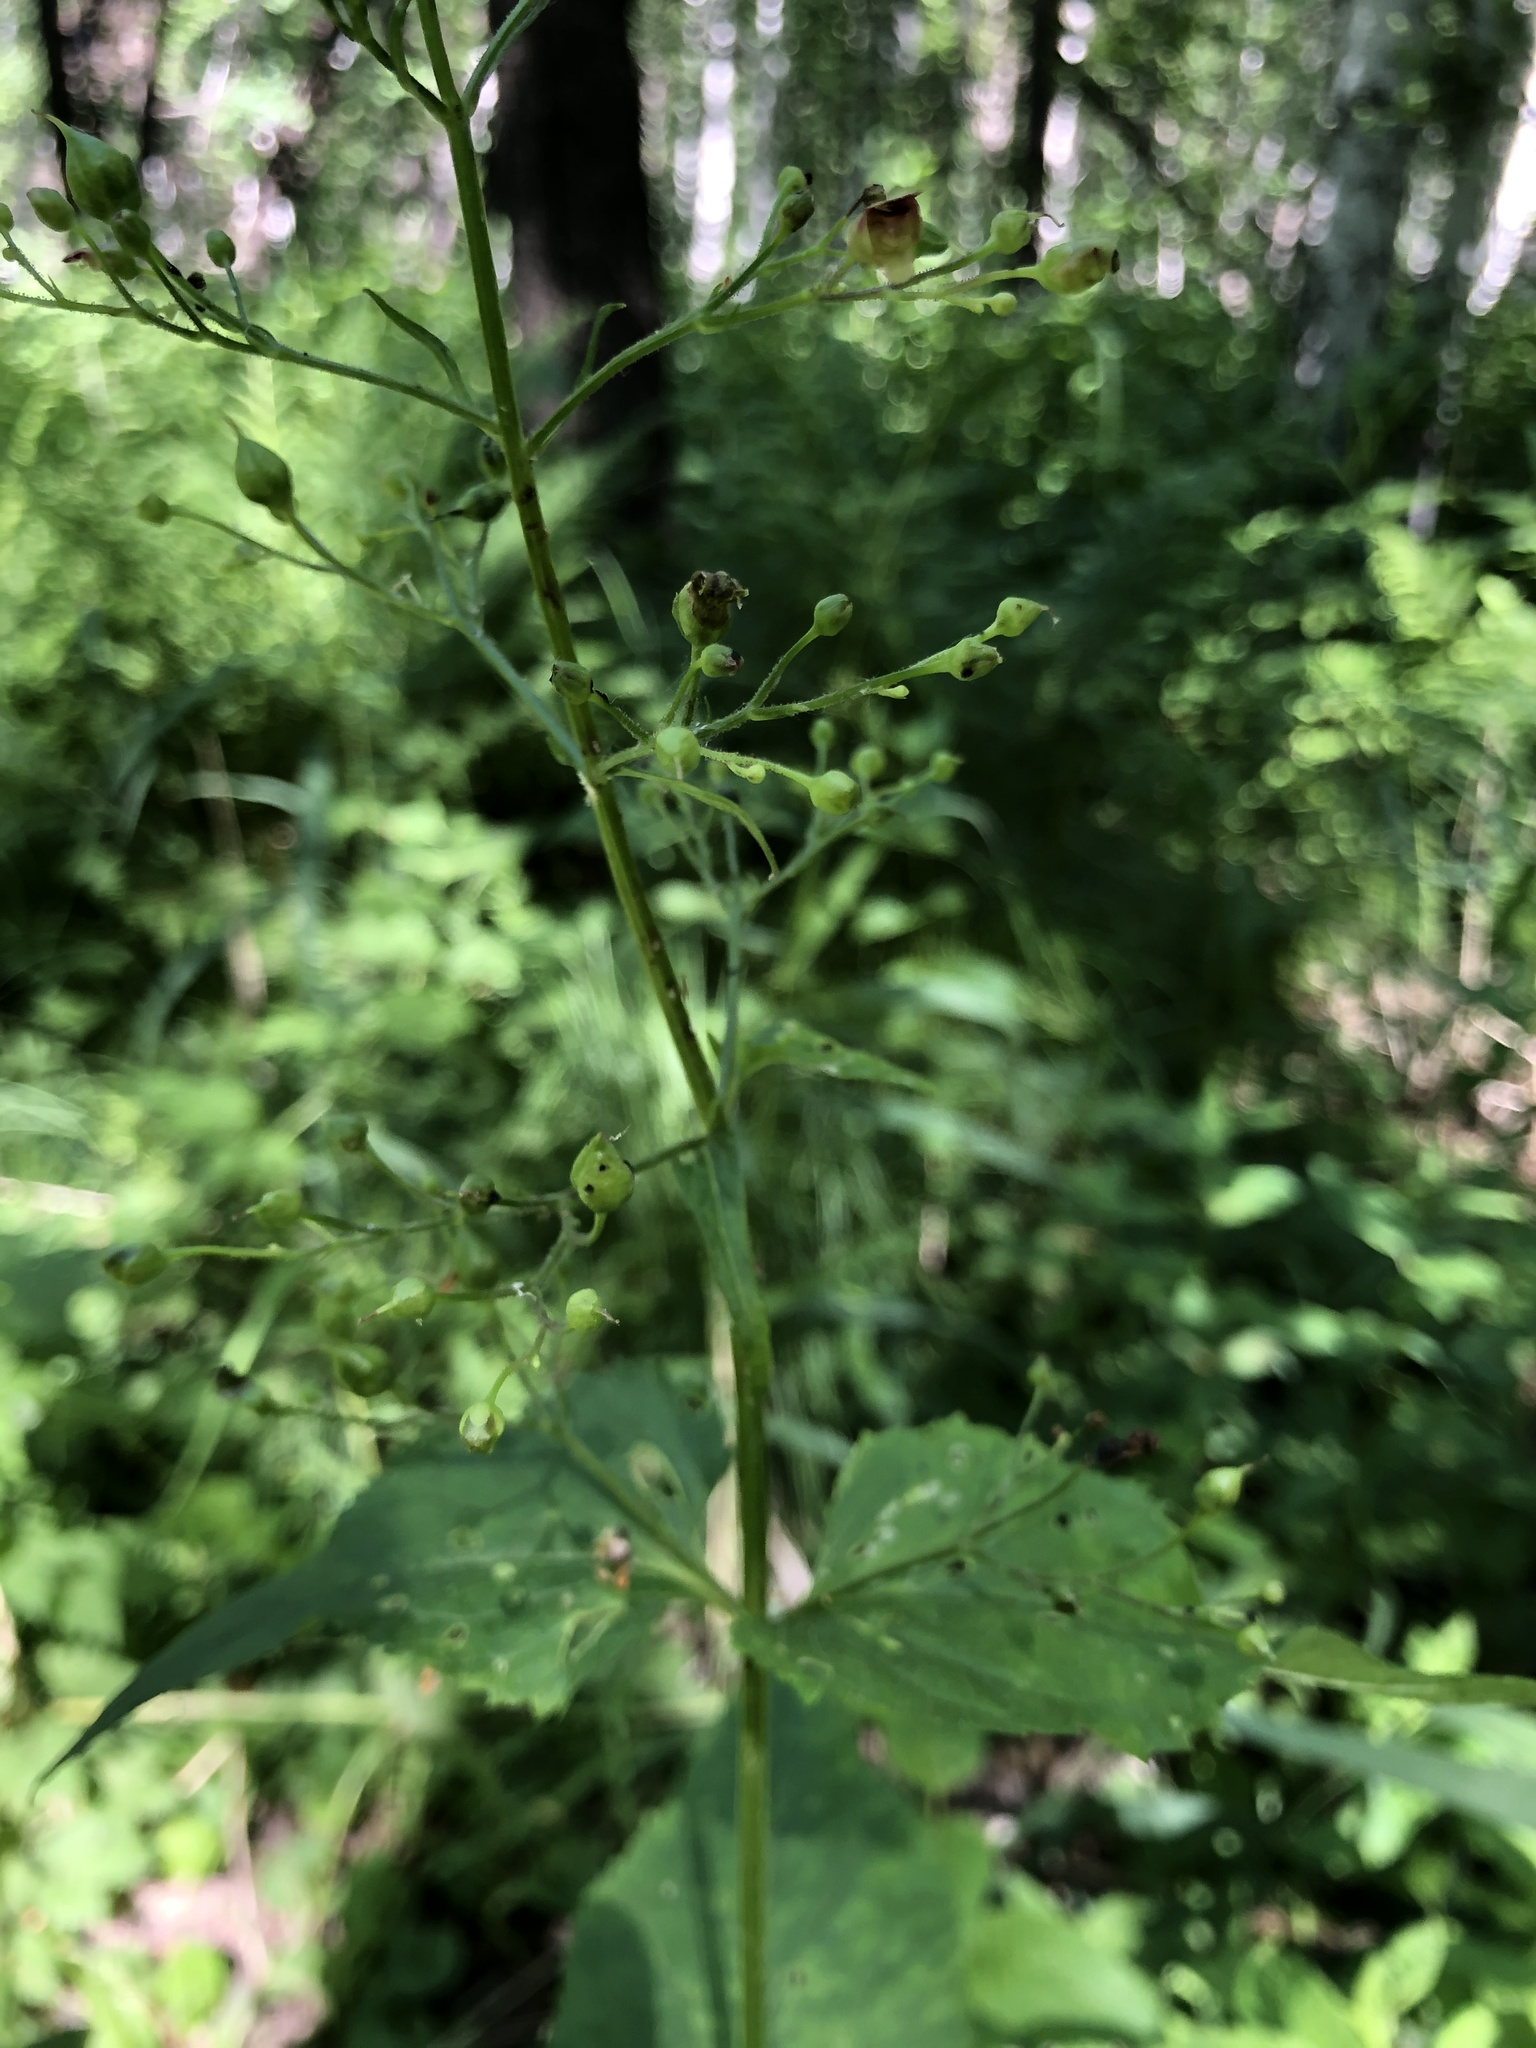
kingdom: Plantae
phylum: Tracheophyta
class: Magnoliopsida
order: Lamiales
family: Scrophulariaceae
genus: Scrophularia
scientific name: Scrophularia nodosa
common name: Common figwort
